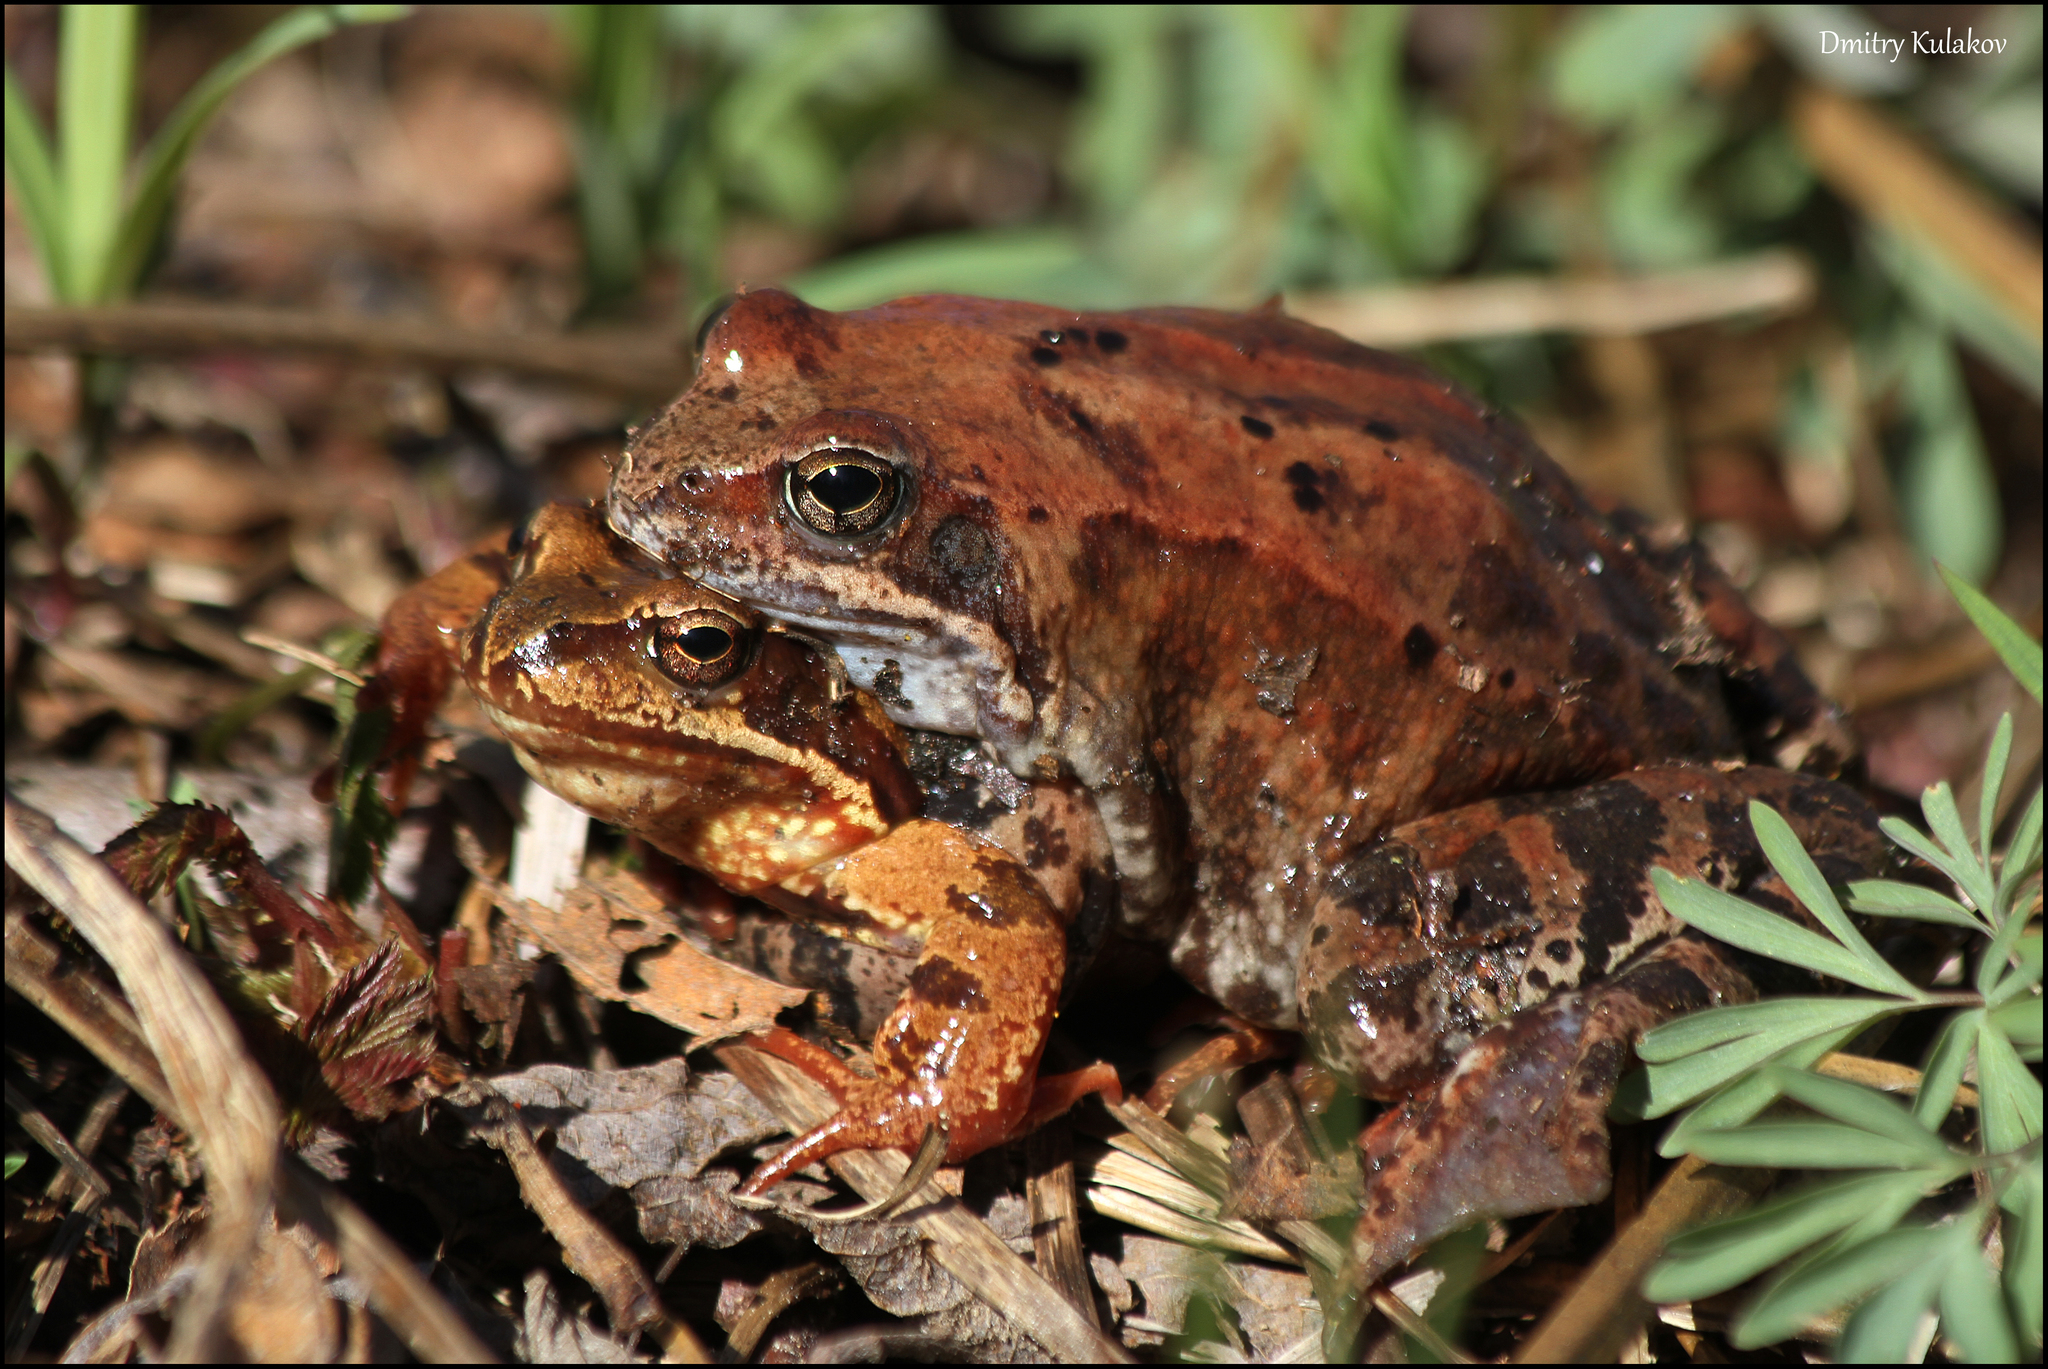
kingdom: Animalia
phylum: Chordata
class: Amphibia
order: Anura
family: Ranidae
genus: Rana
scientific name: Rana temporaria
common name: Common frog
